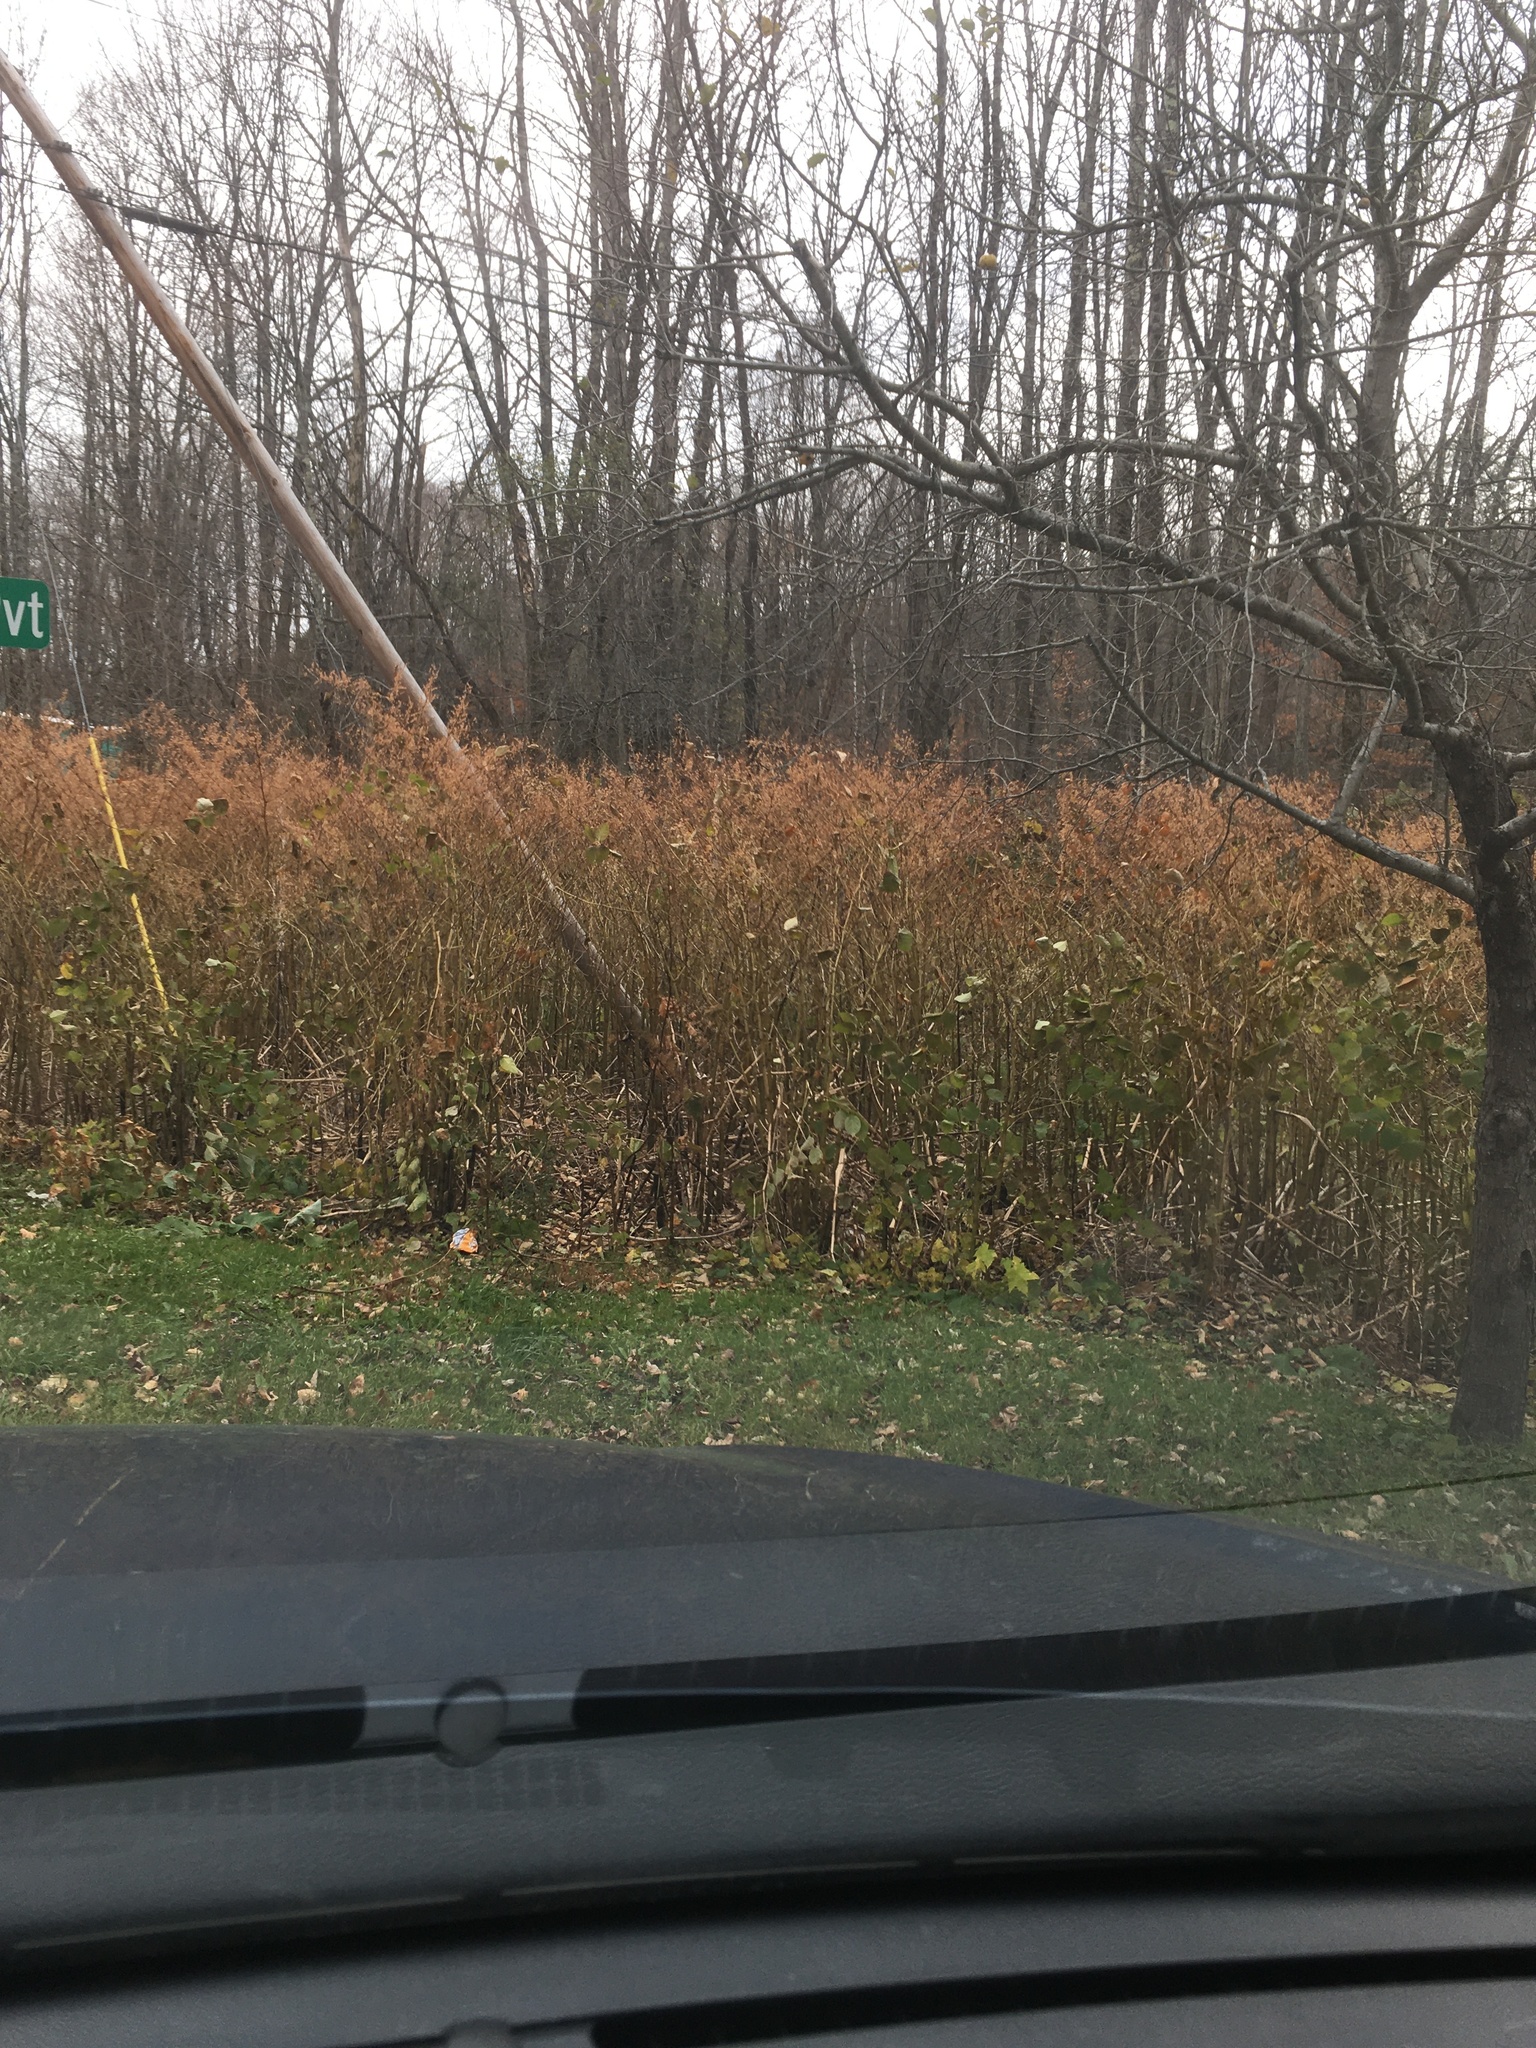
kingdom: Plantae
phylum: Tracheophyta
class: Magnoliopsida
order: Caryophyllales
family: Polygonaceae
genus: Reynoutria
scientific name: Reynoutria japonica
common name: Japanese knotweed
